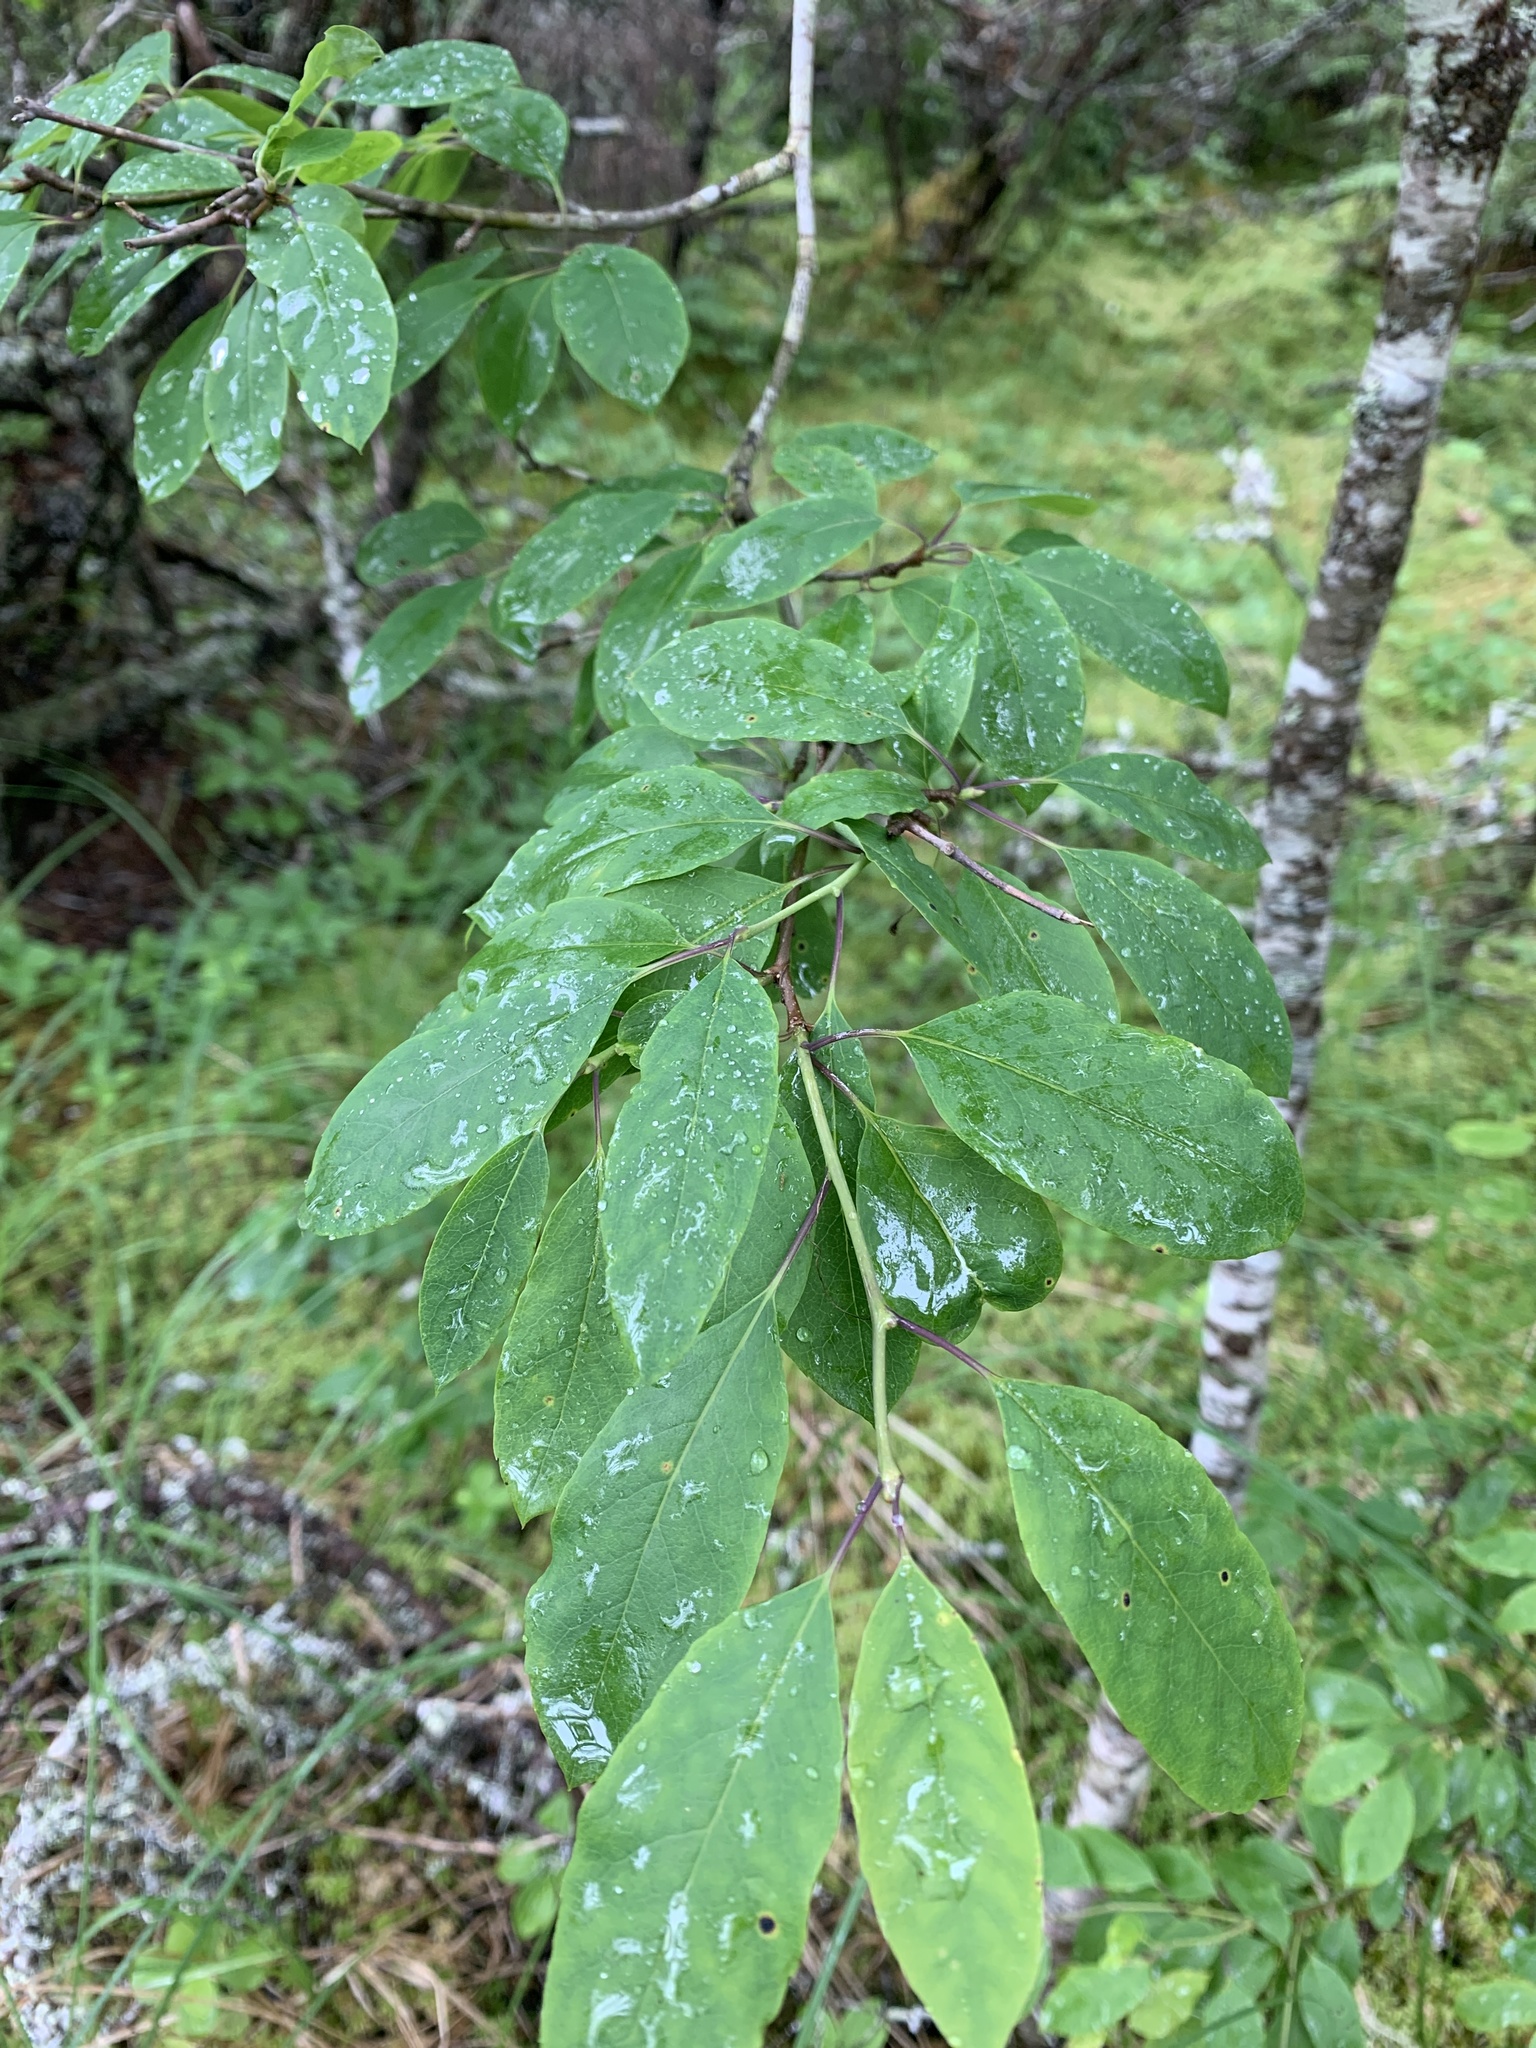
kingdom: Plantae
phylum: Tracheophyta
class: Magnoliopsida
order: Aquifoliales
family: Aquifoliaceae
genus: Ilex
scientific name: Ilex mucronata
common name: Catberry
